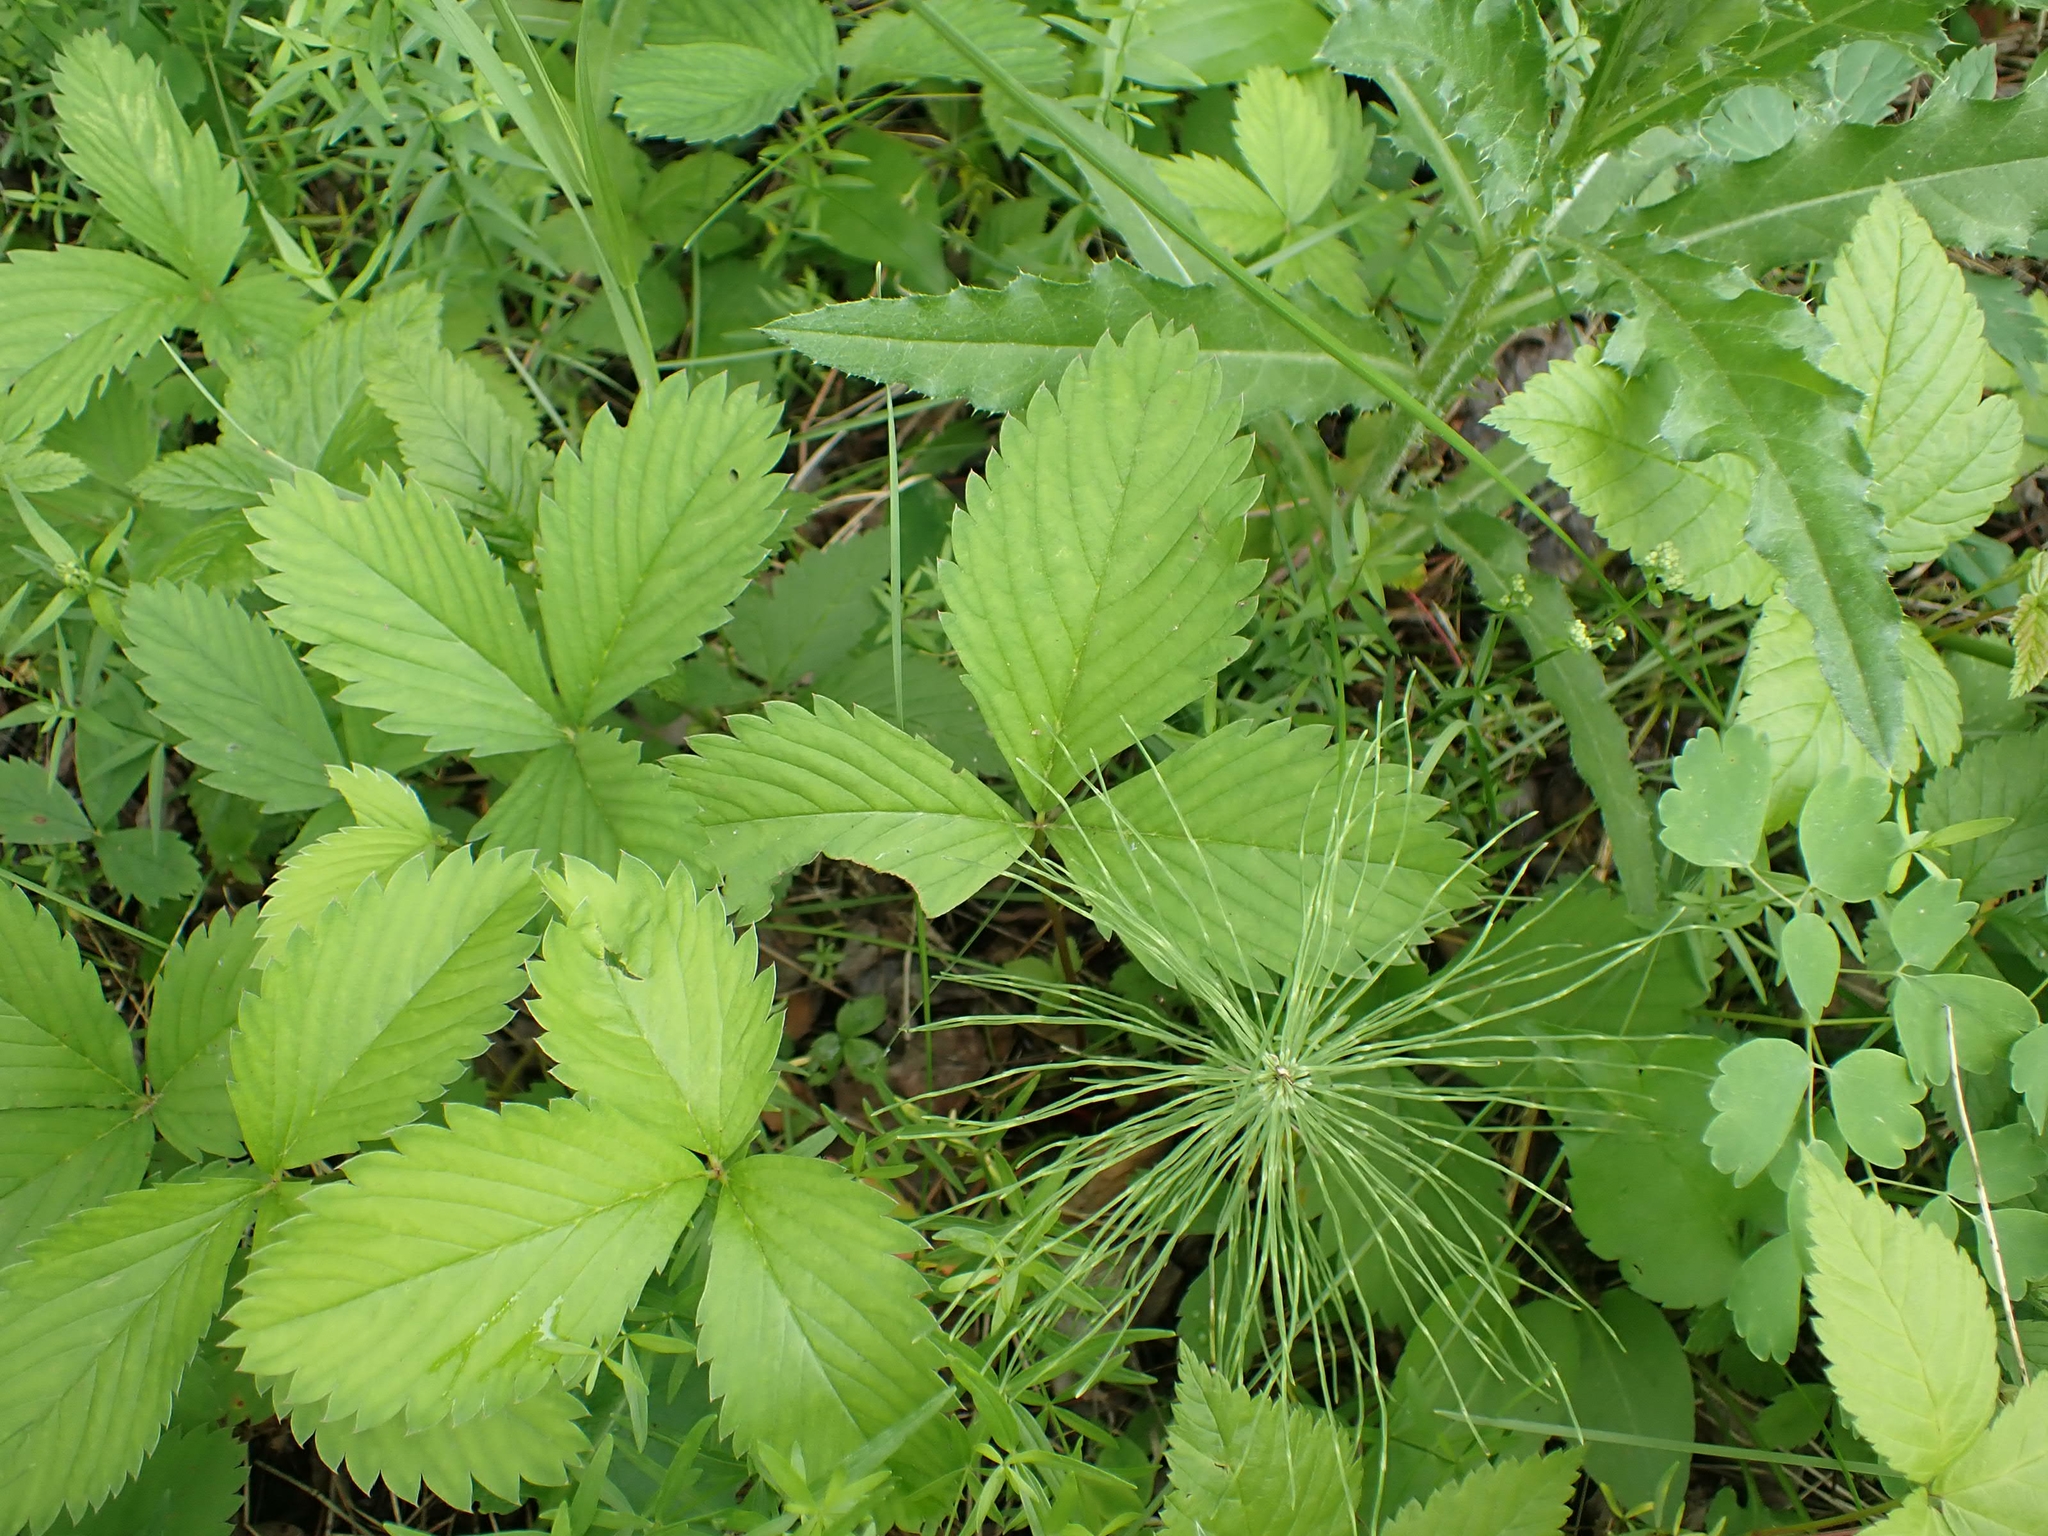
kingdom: Plantae
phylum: Tracheophyta
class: Magnoliopsida
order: Rosales
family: Rosaceae
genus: Fragaria
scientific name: Fragaria virginiana
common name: Thickleaved wild strawberry
